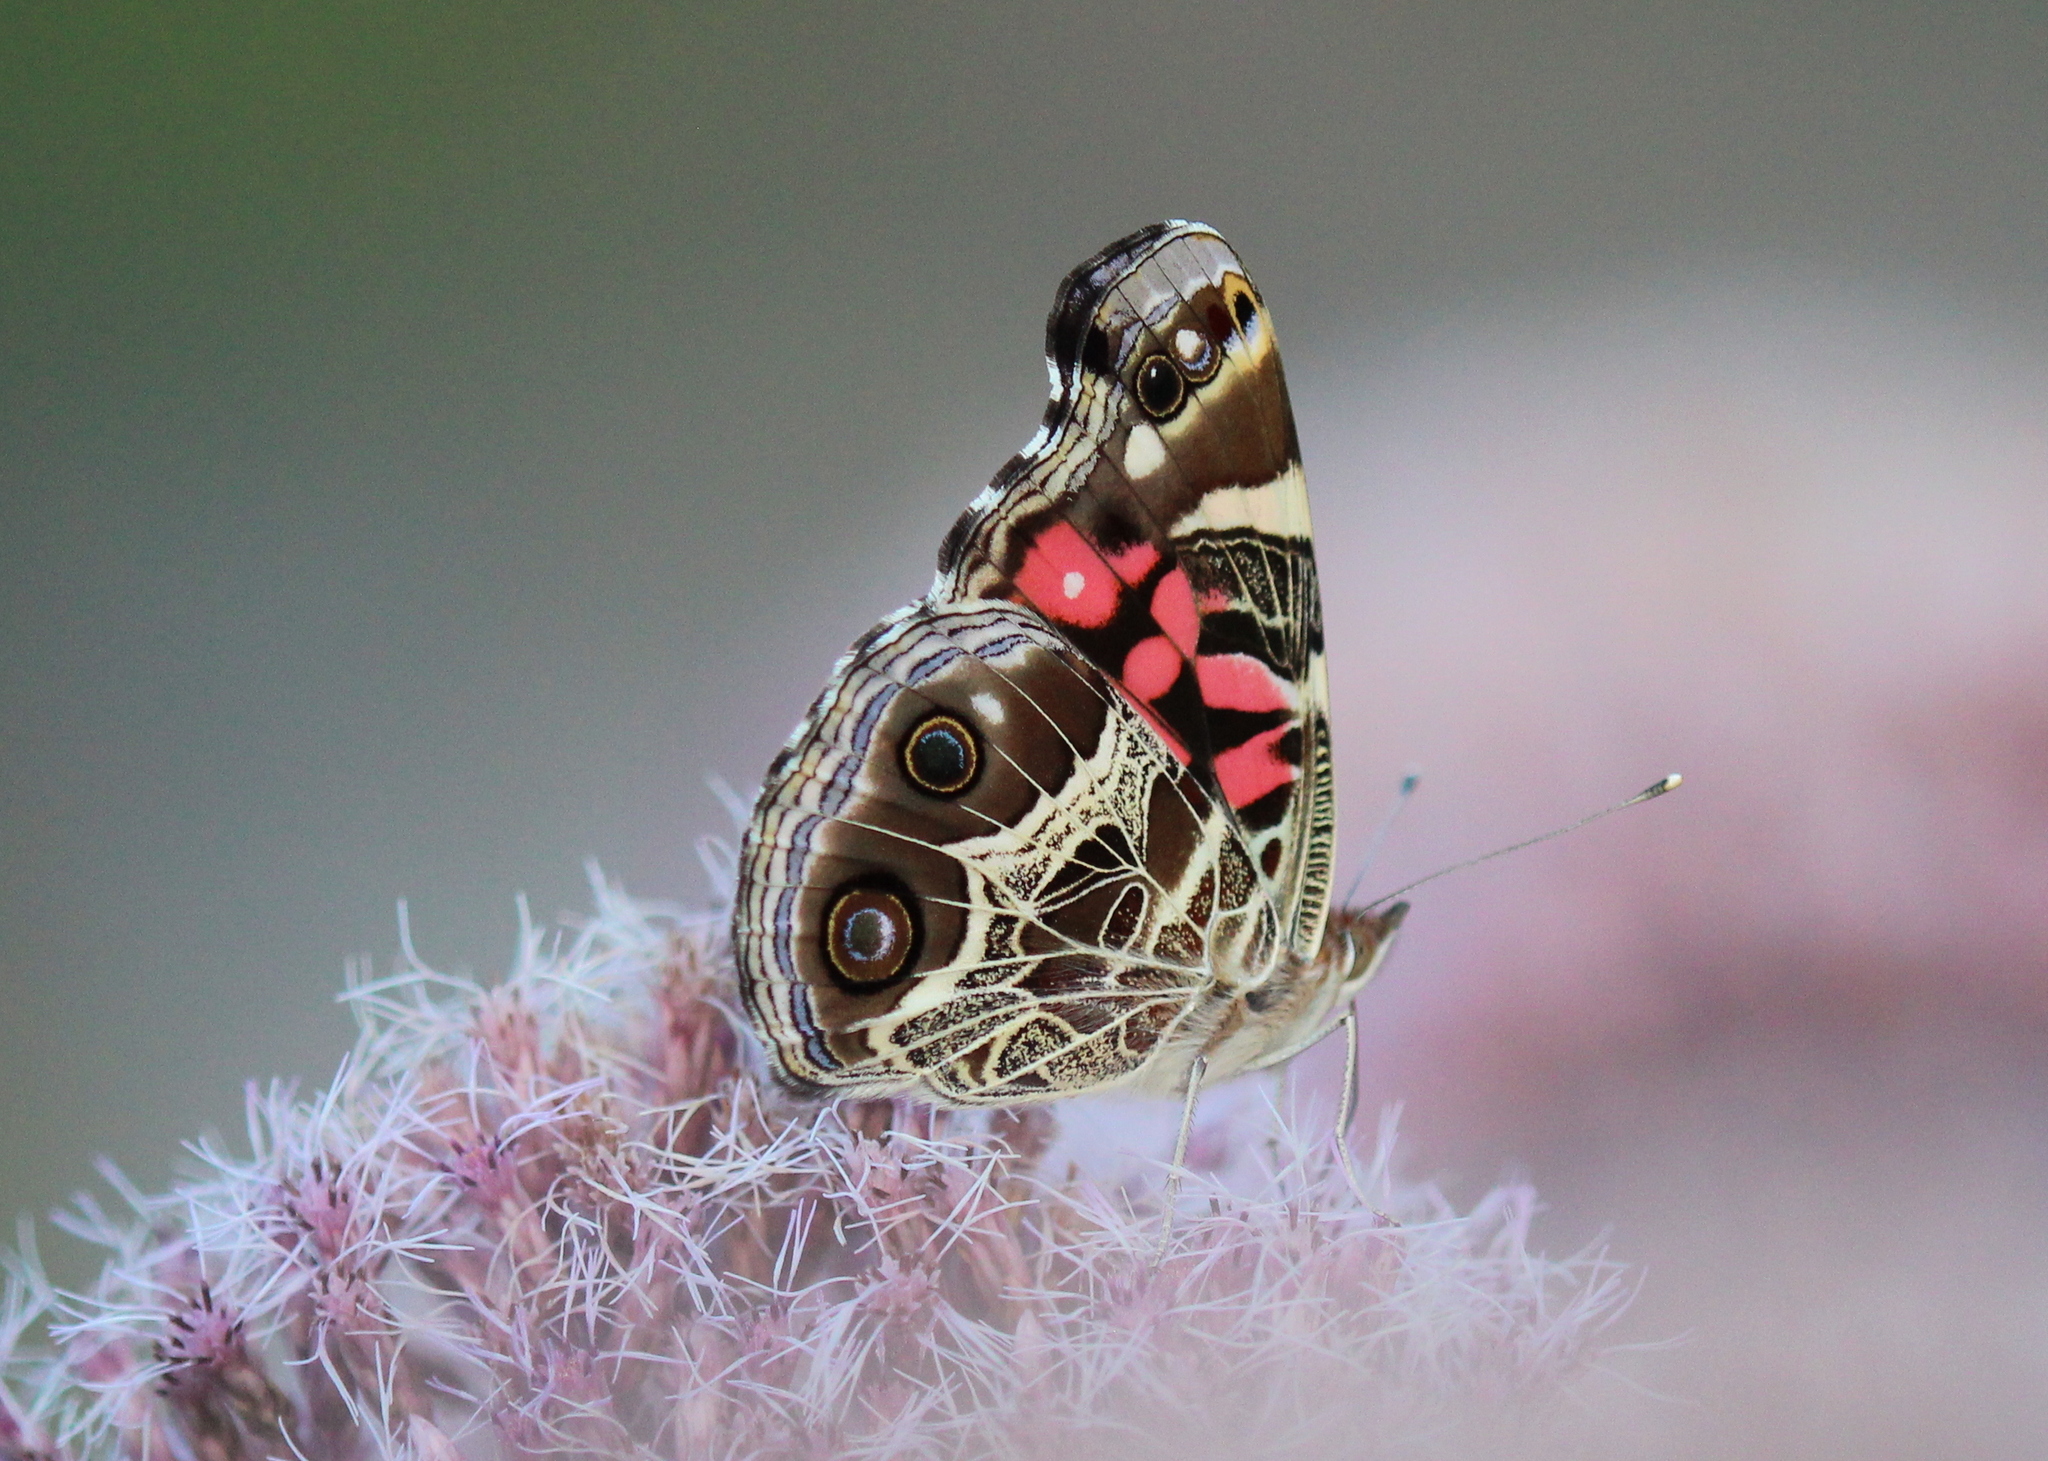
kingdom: Animalia
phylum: Arthropoda
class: Insecta
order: Lepidoptera
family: Nymphalidae
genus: Vanessa
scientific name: Vanessa virginiensis
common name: American lady
